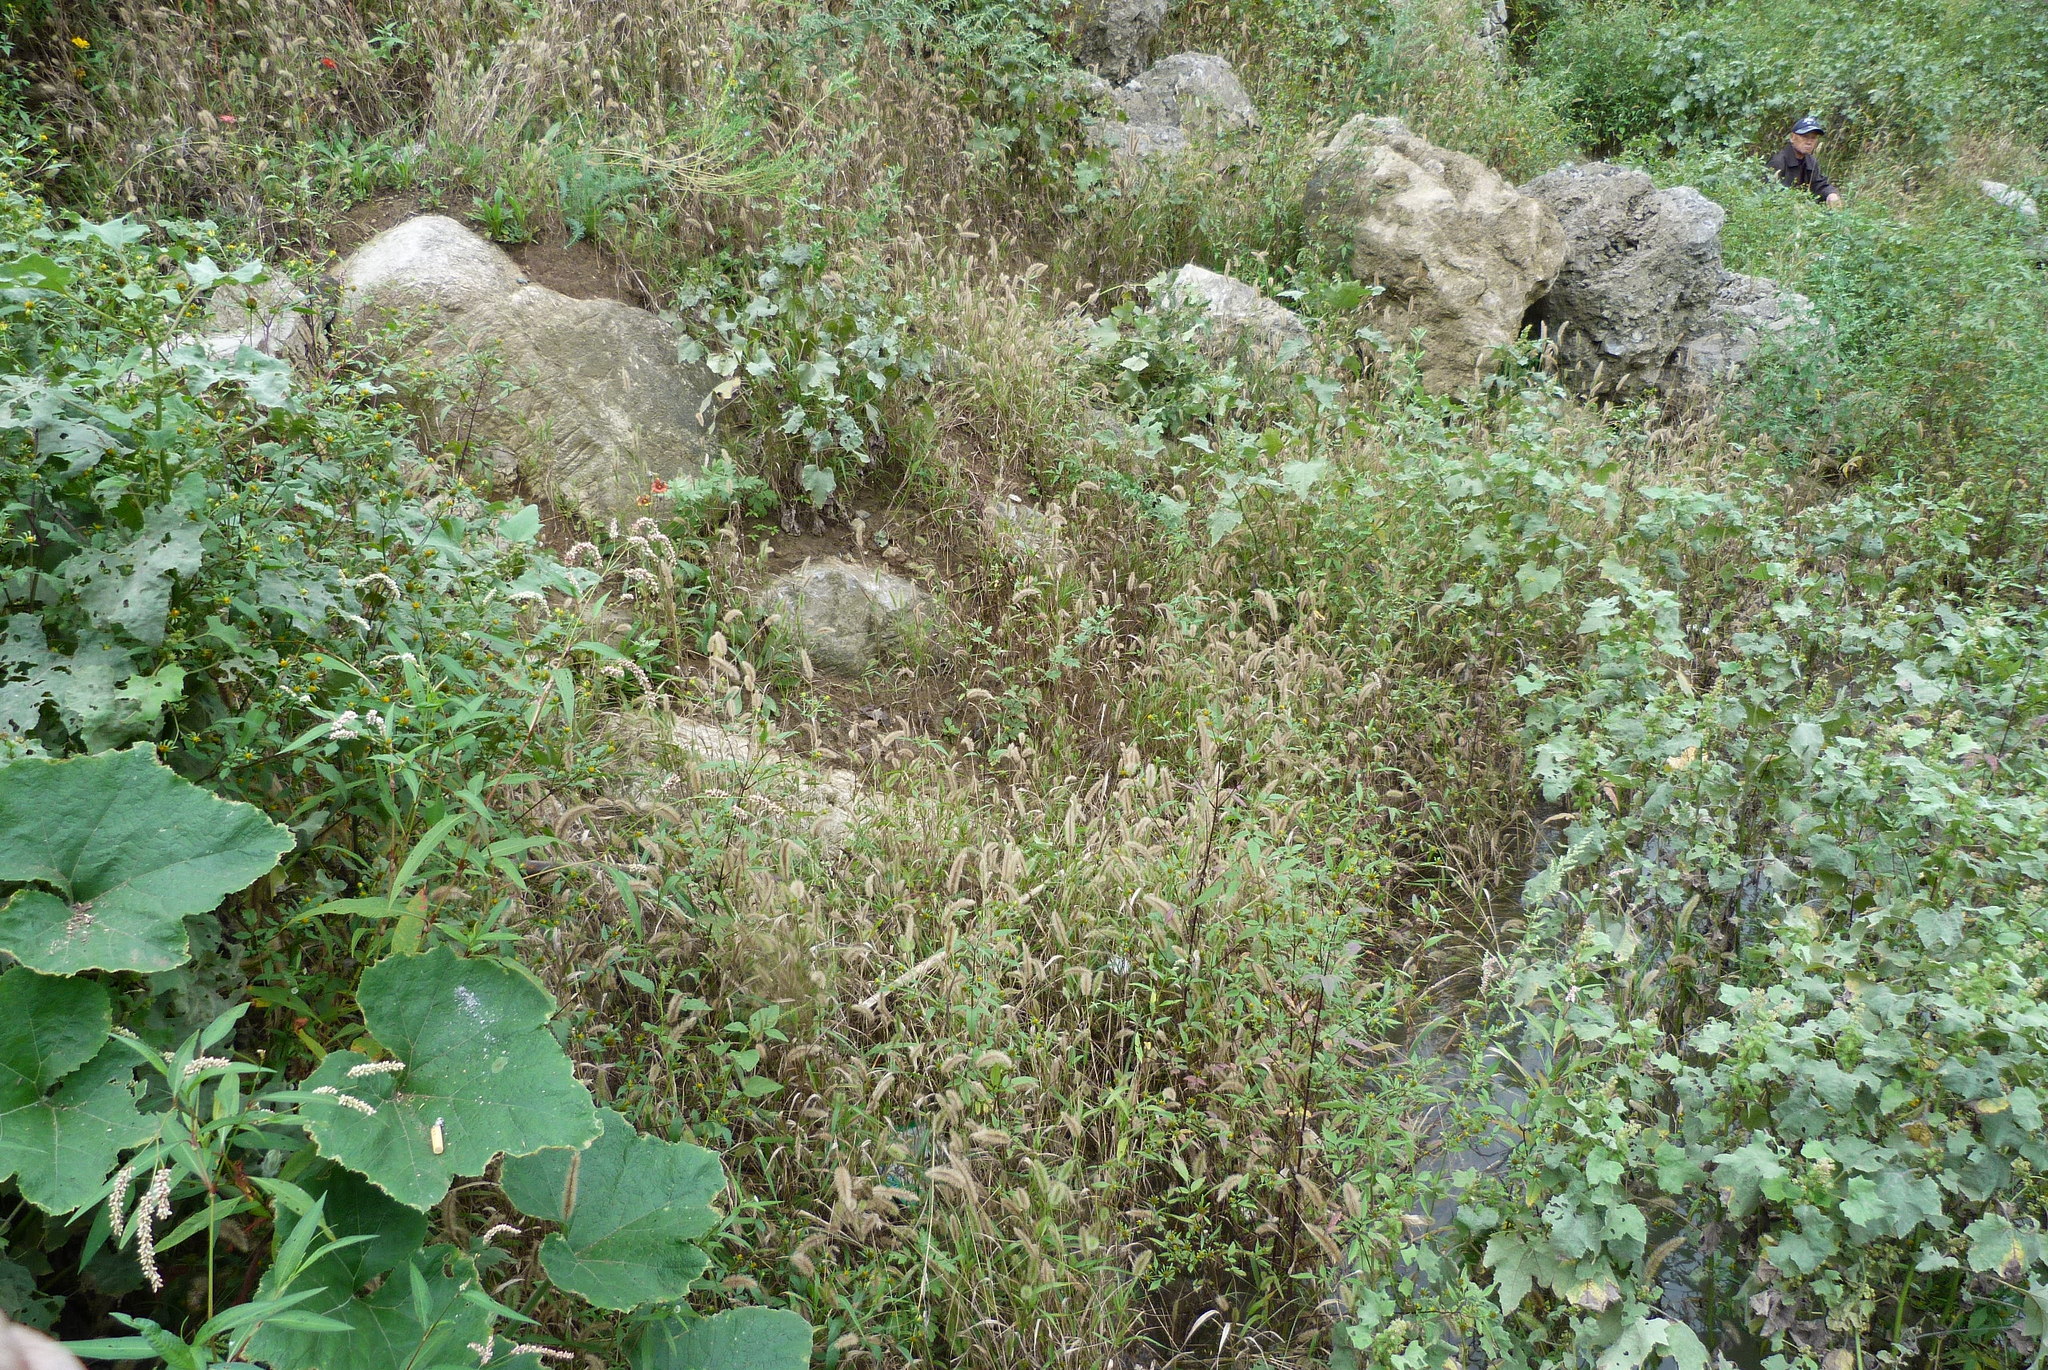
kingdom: Plantae
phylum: Tracheophyta
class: Liliopsida
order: Poales
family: Poaceae
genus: Setaria
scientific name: Setaria viridis
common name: Green bristlegrass
